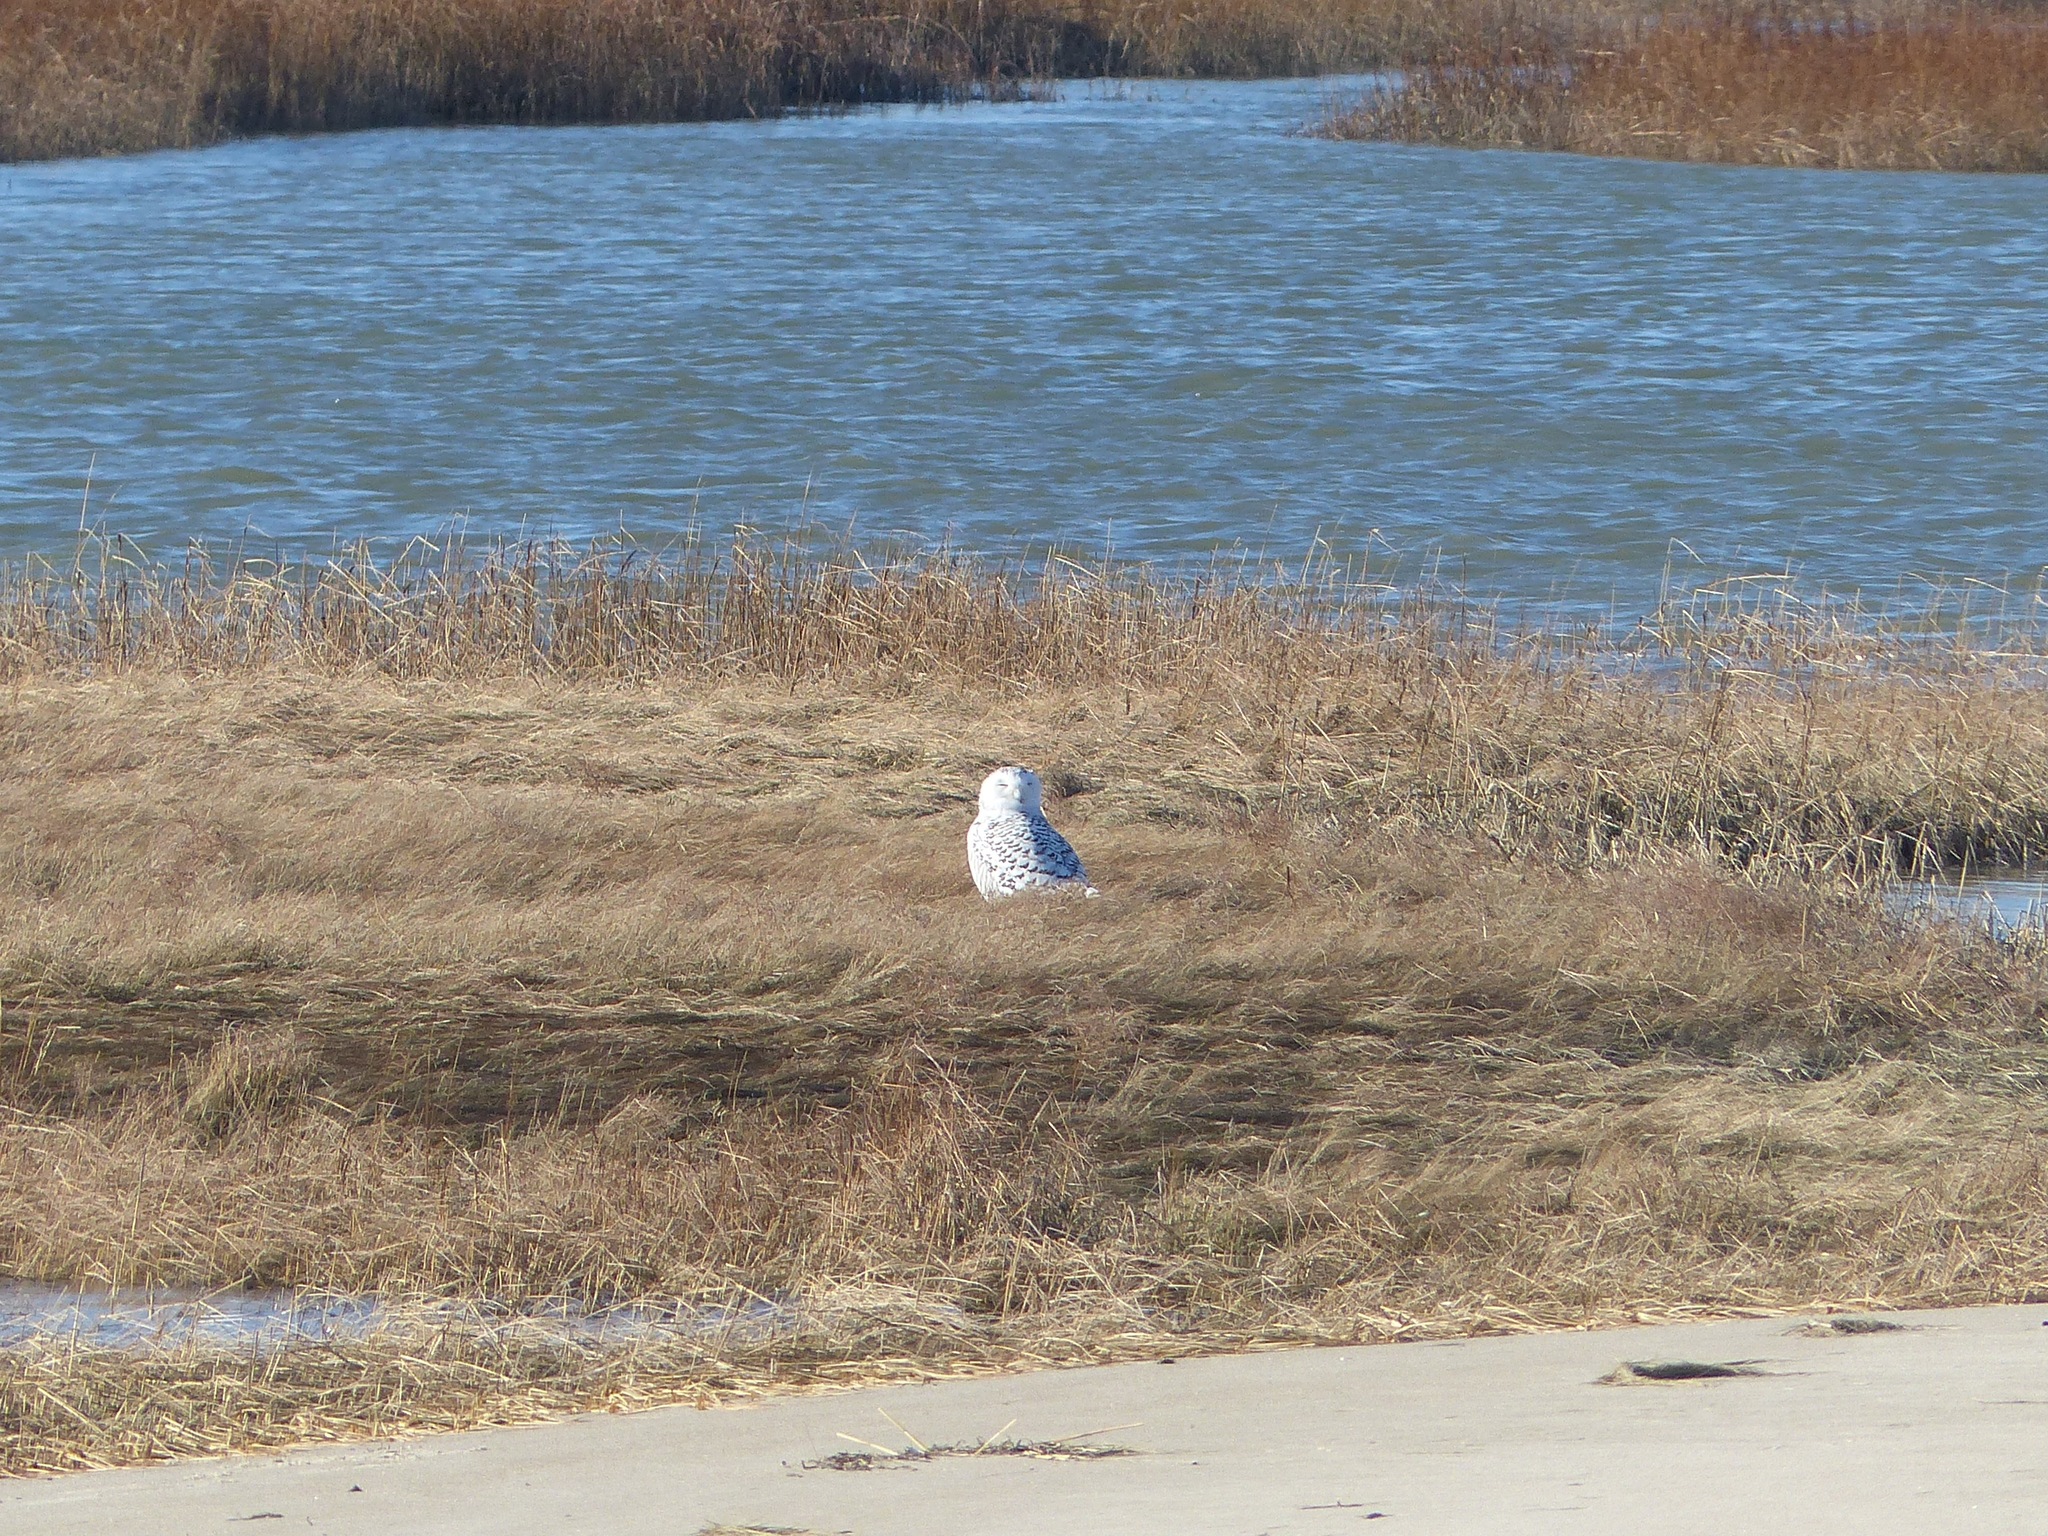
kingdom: Animalia
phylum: Chordata
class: Aves
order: Strigiformes
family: Strigidae
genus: Bubo
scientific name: Bubo scandiacus
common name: Snowy owl
